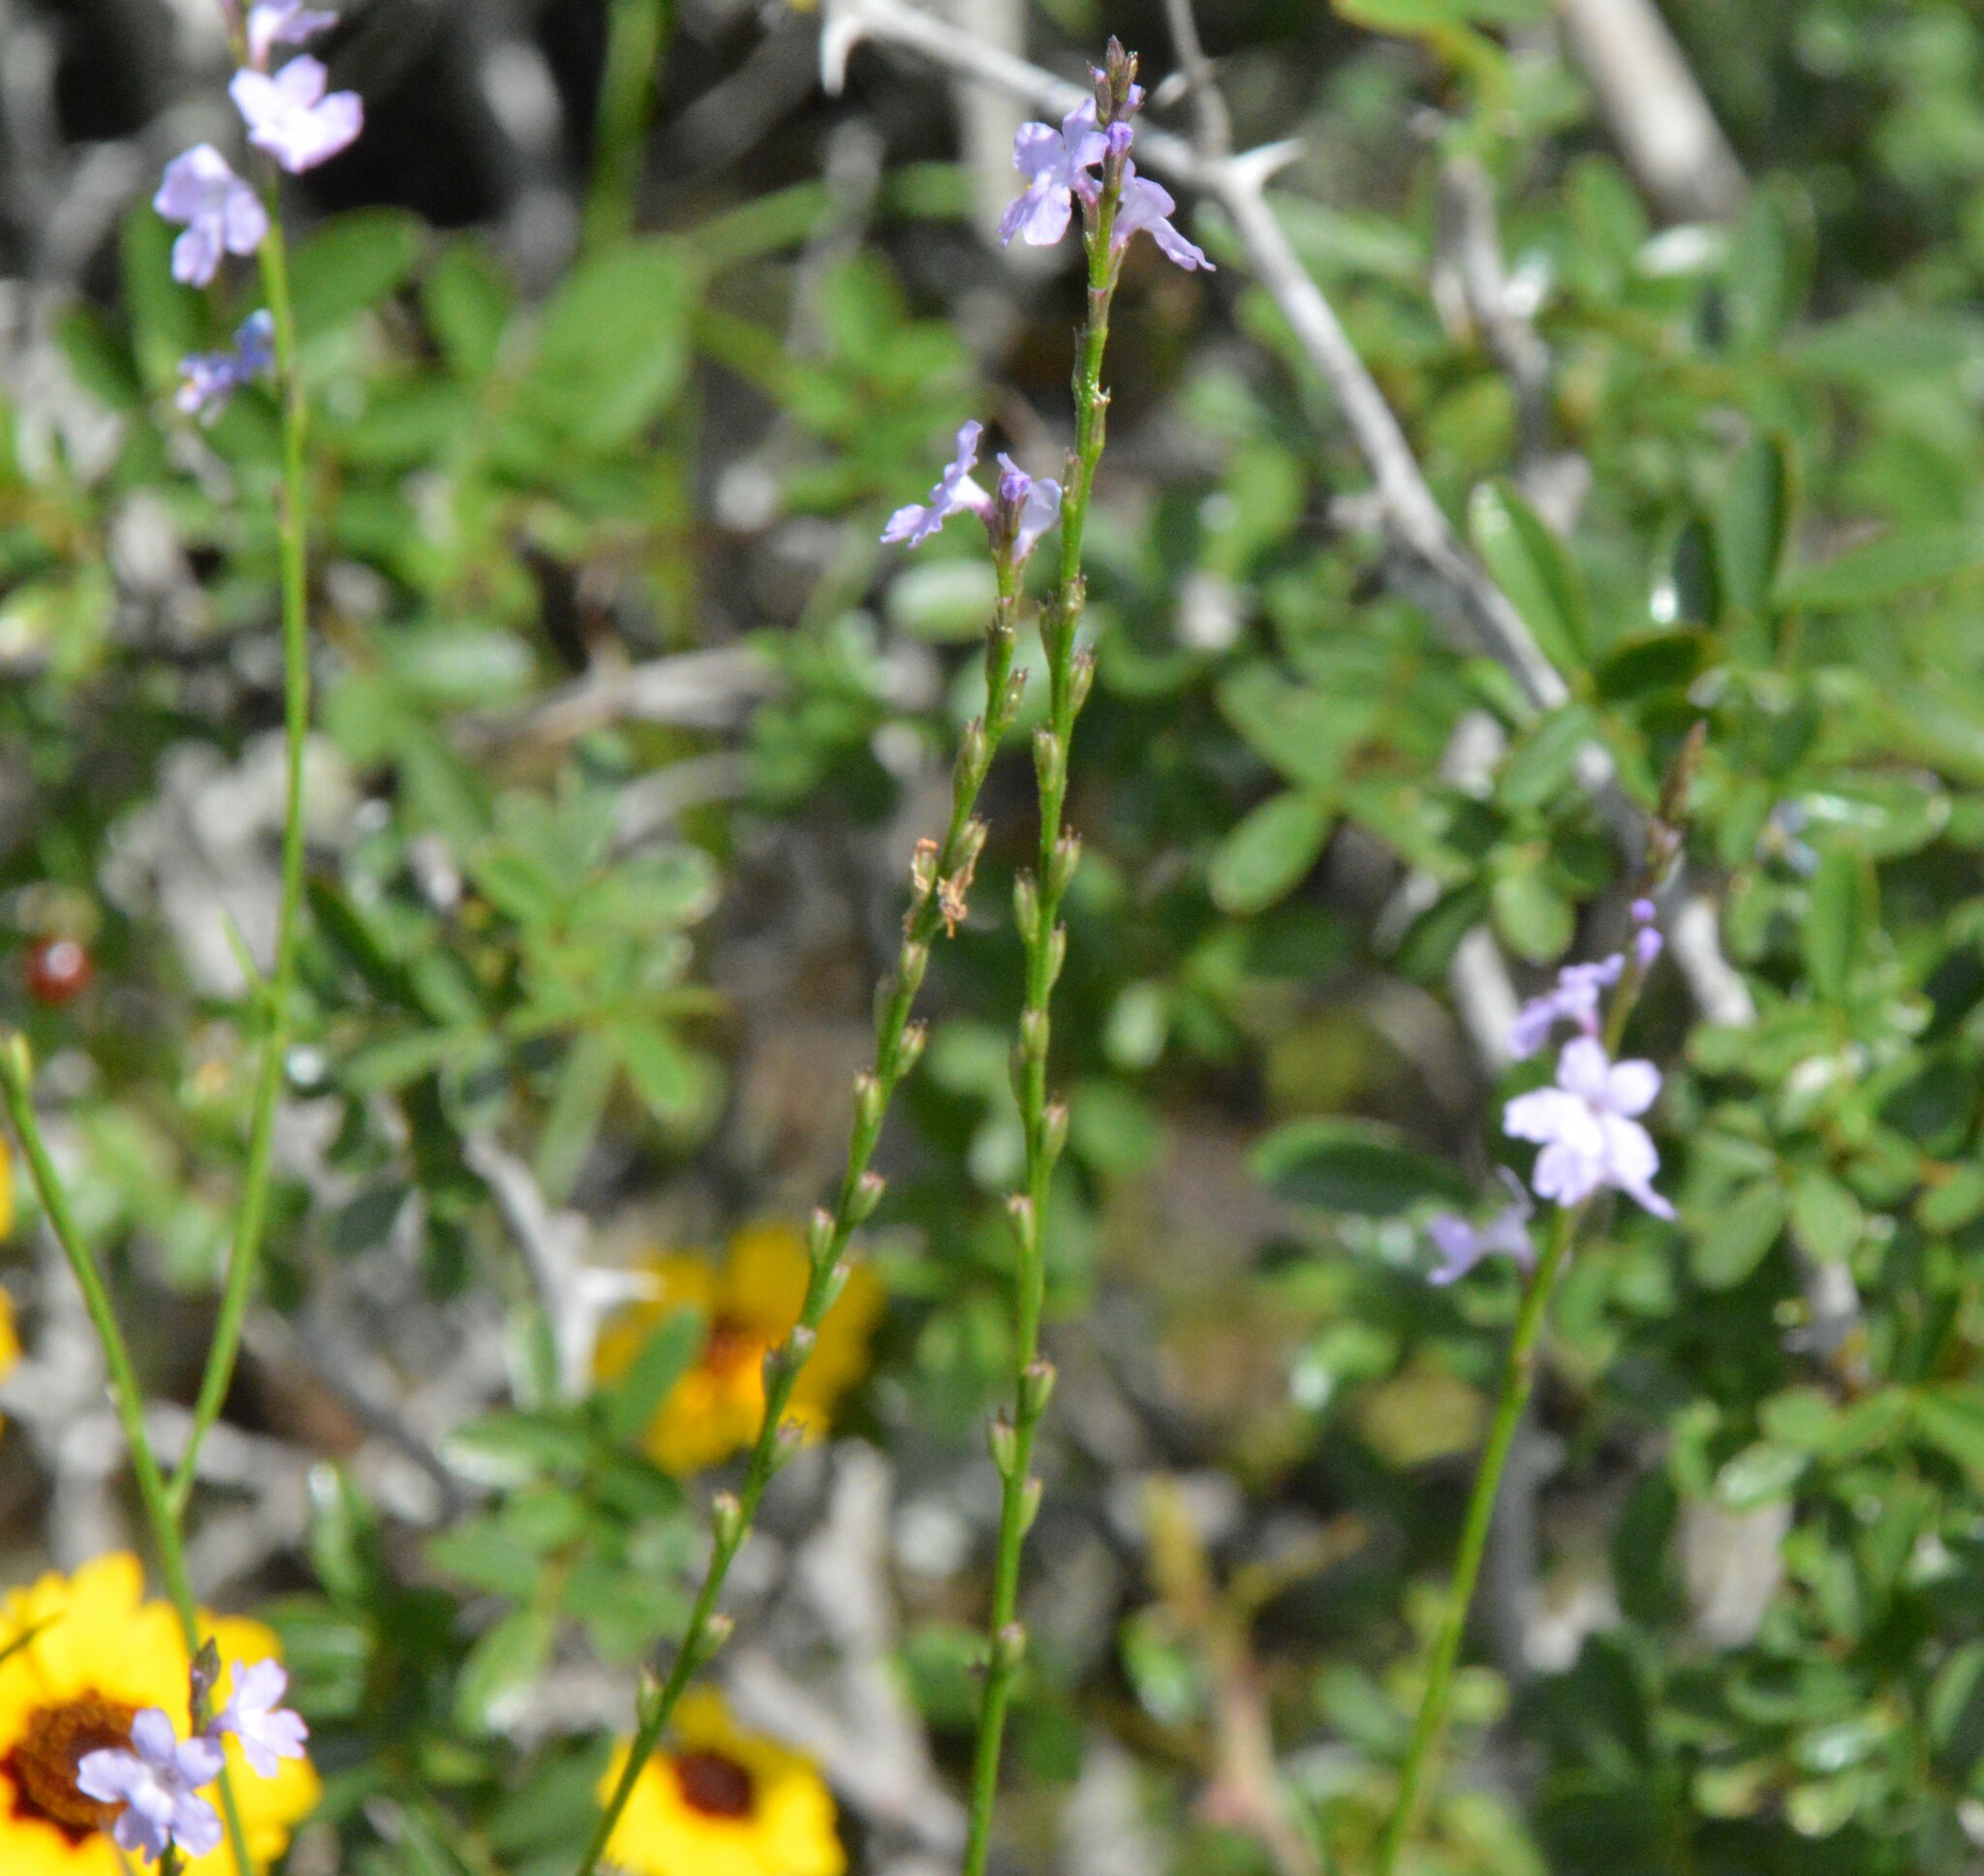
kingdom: Plantae
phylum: Tracheophyta
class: Magnoliopsida
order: Lamiales
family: Verbenaceae
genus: Verbena
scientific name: Verbena halei
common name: Texas vervain
